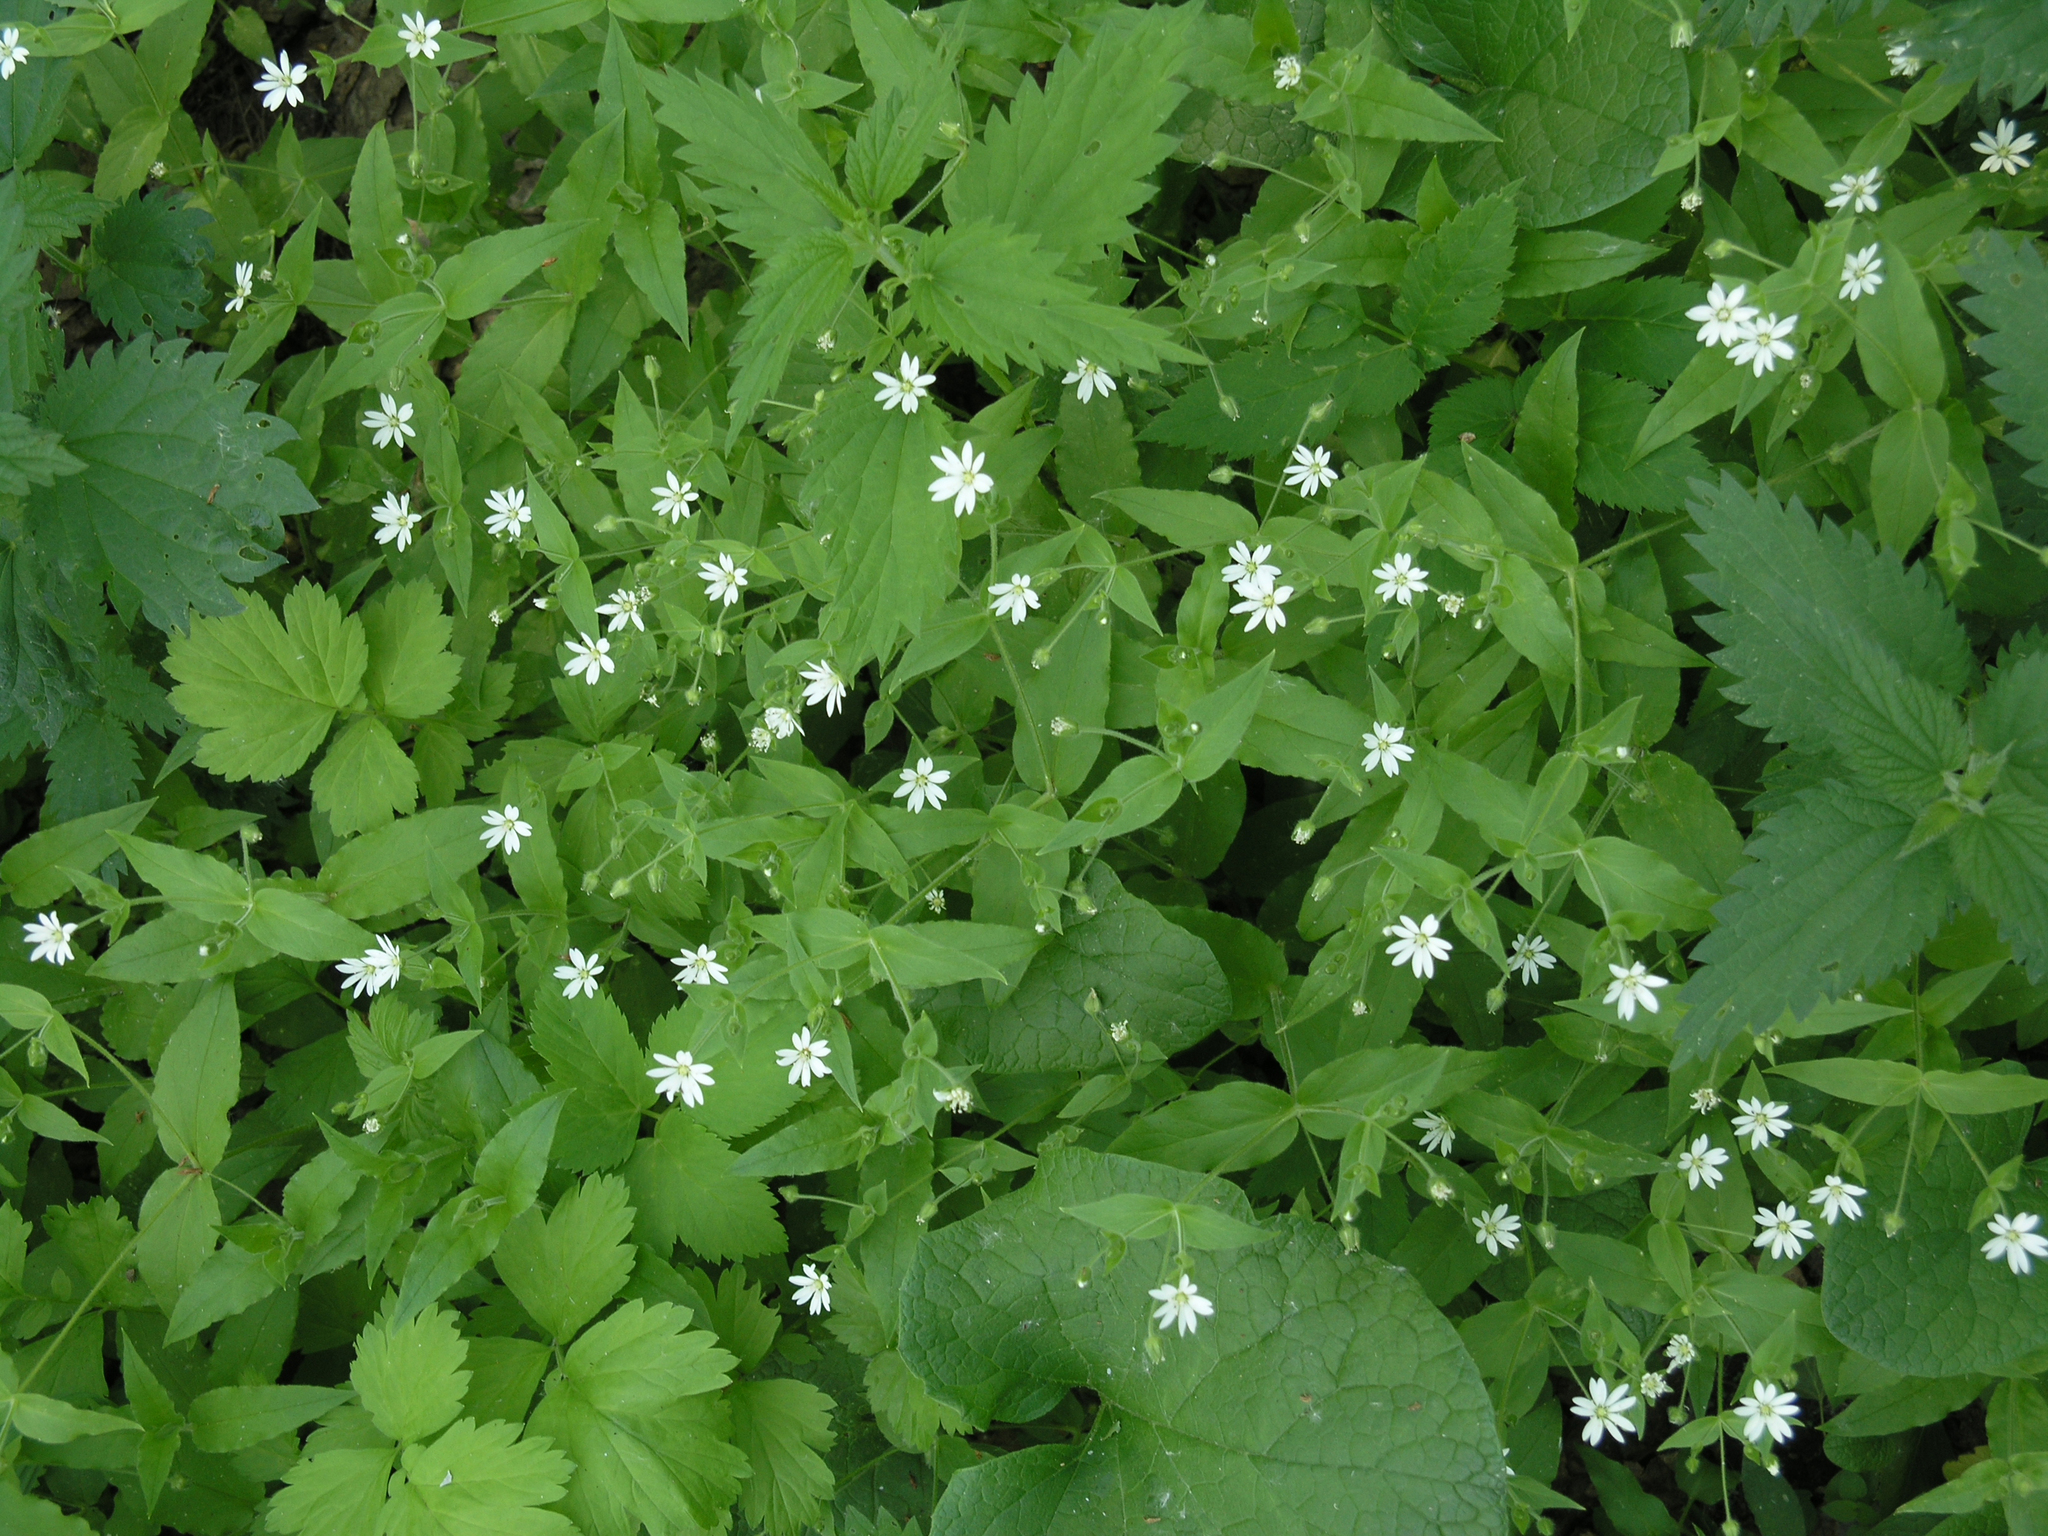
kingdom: Plantae
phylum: Tracheophyta
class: Magnoliopsida
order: Caryophyllales
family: Caryophyllaceae
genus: Stellaria
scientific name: Stellaria bungeana
